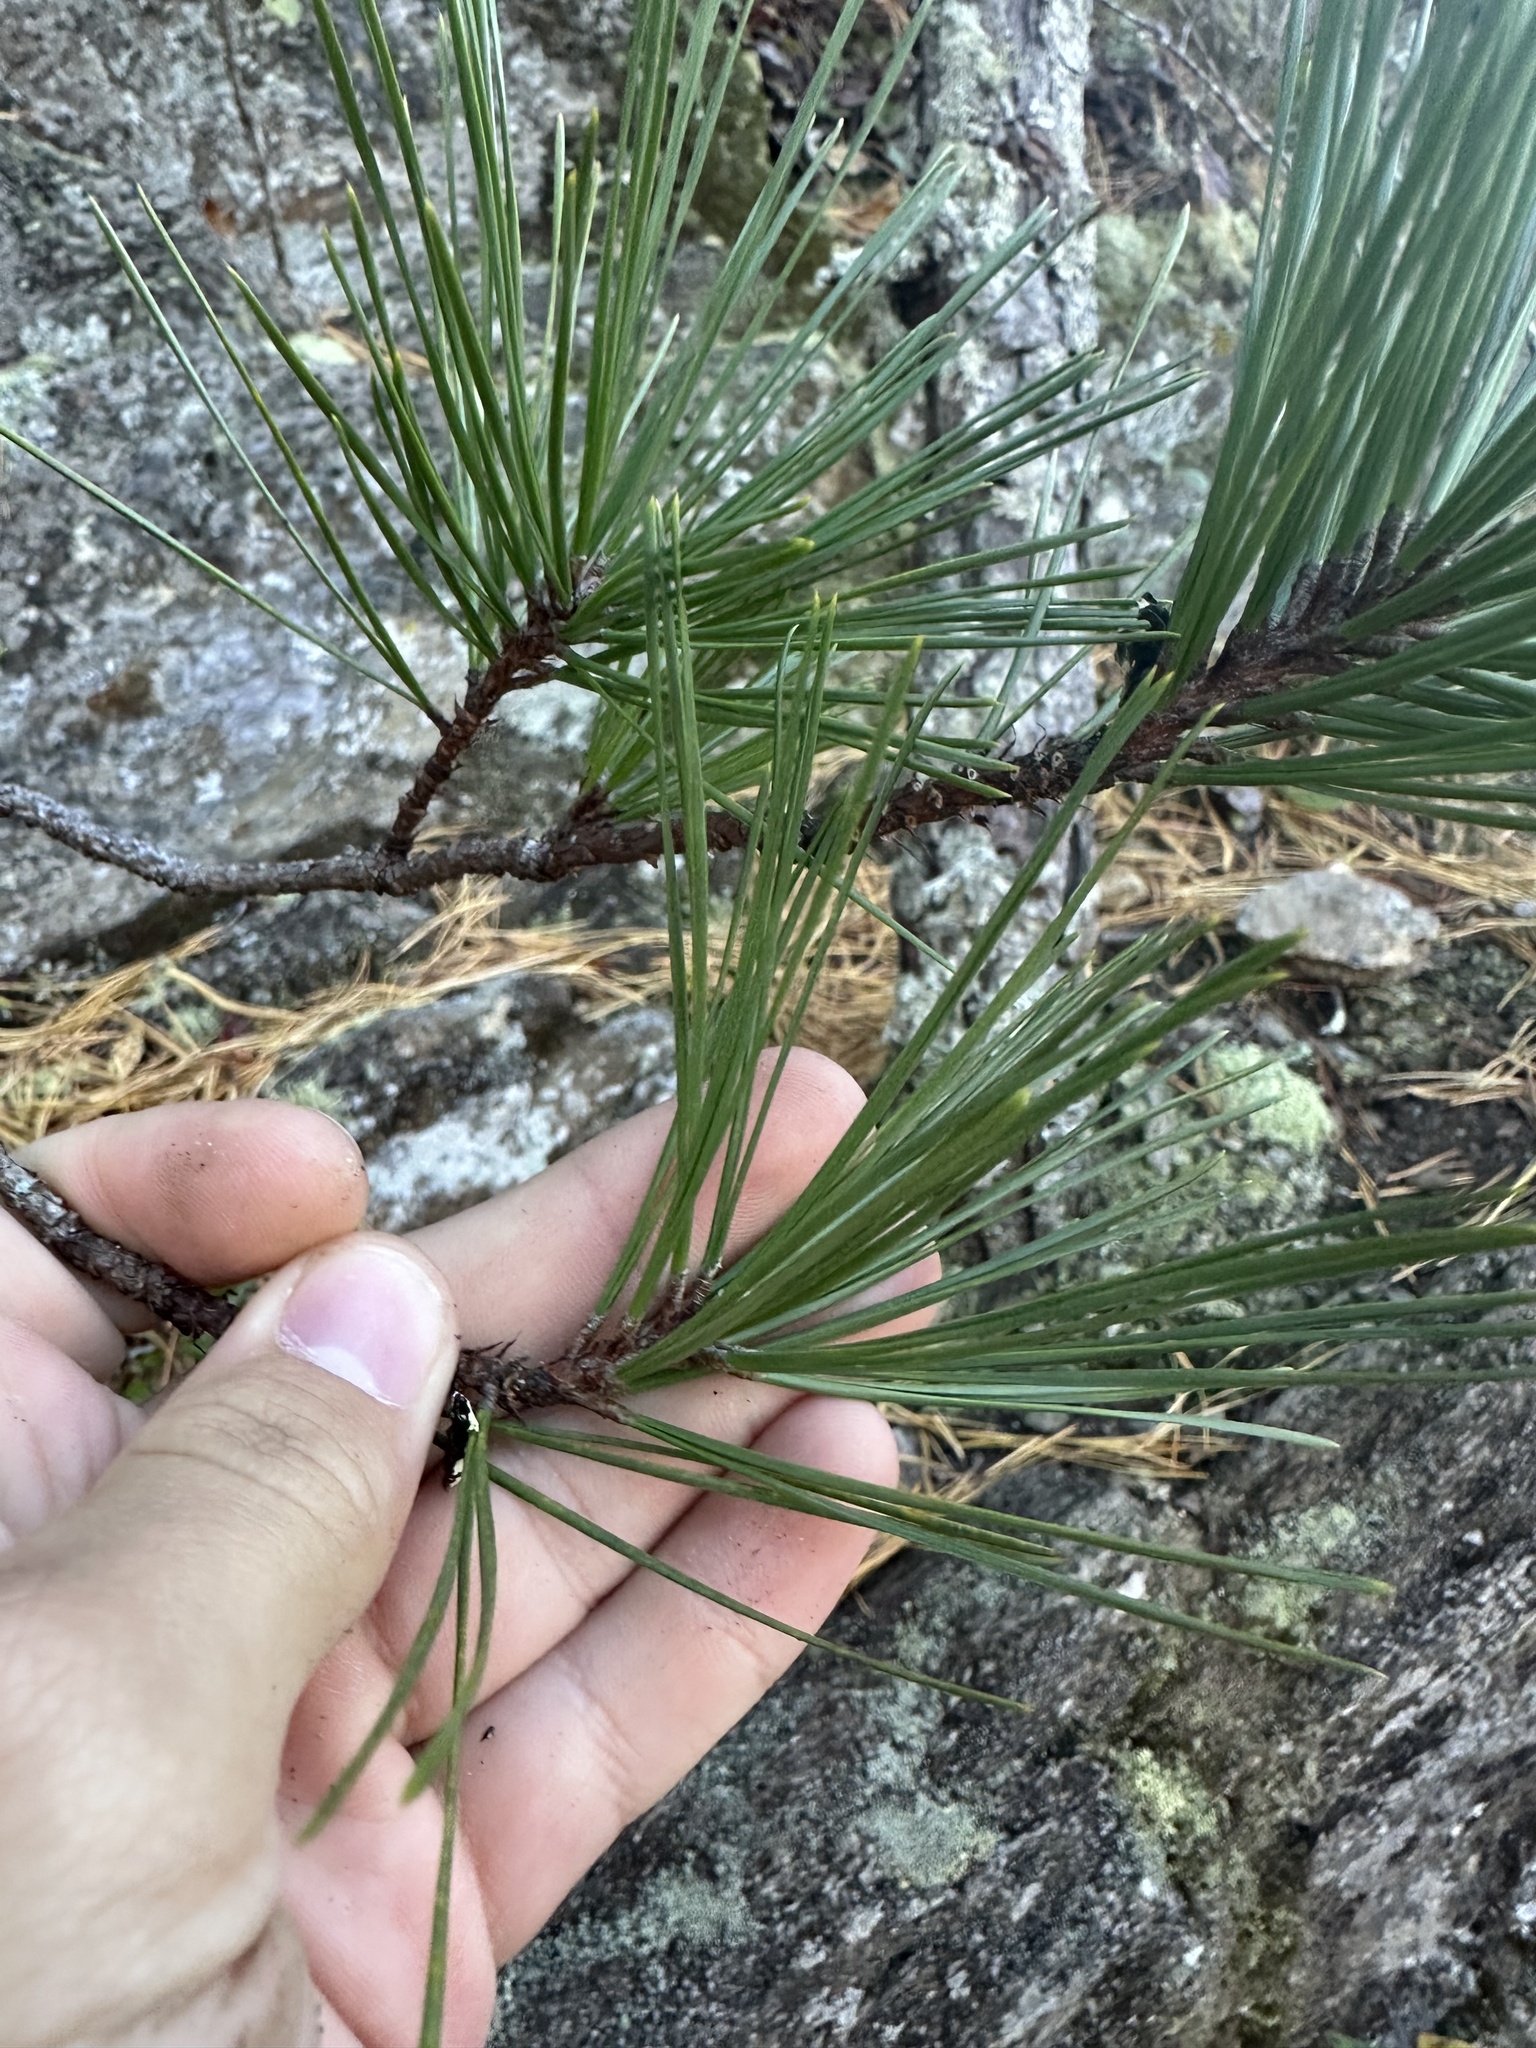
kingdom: Plantae
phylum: Tracheophyta
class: Pinopsida
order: Pinales
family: Pinaceae
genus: Pinus
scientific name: Pinus rigida
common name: Pitch pine
